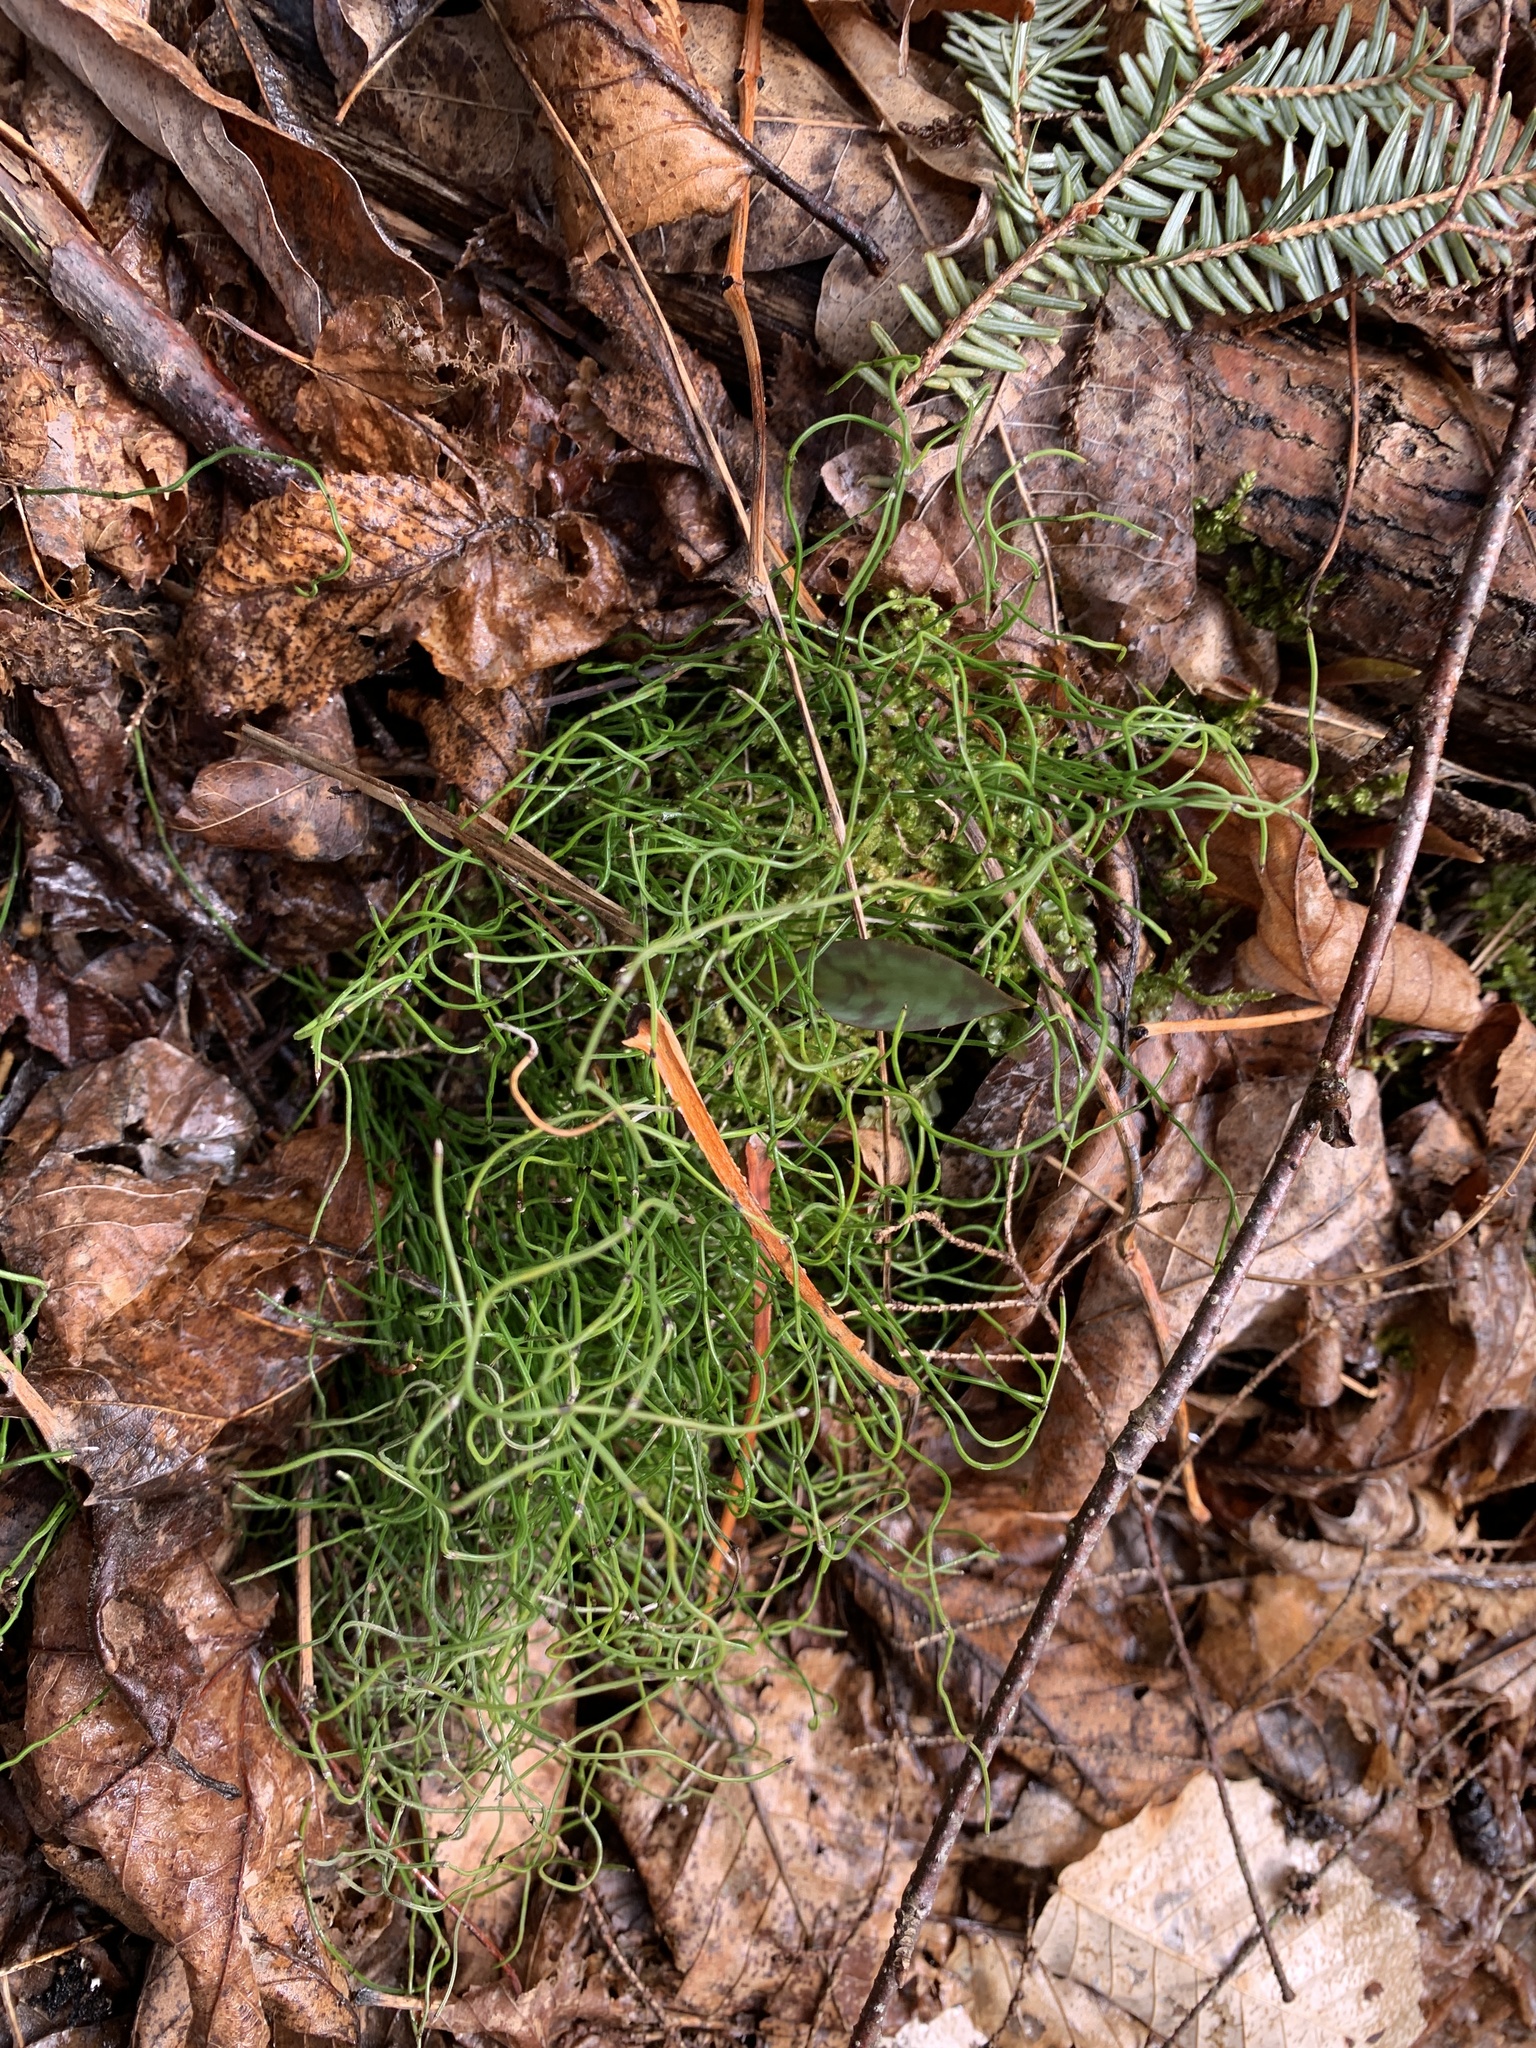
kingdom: Plantae
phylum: Tracheophyta
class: Polypodiopsida
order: Equisetales
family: Equisetaceae
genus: Equisetum
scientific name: Equisetum scirpoides
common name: Delicate horsetail
